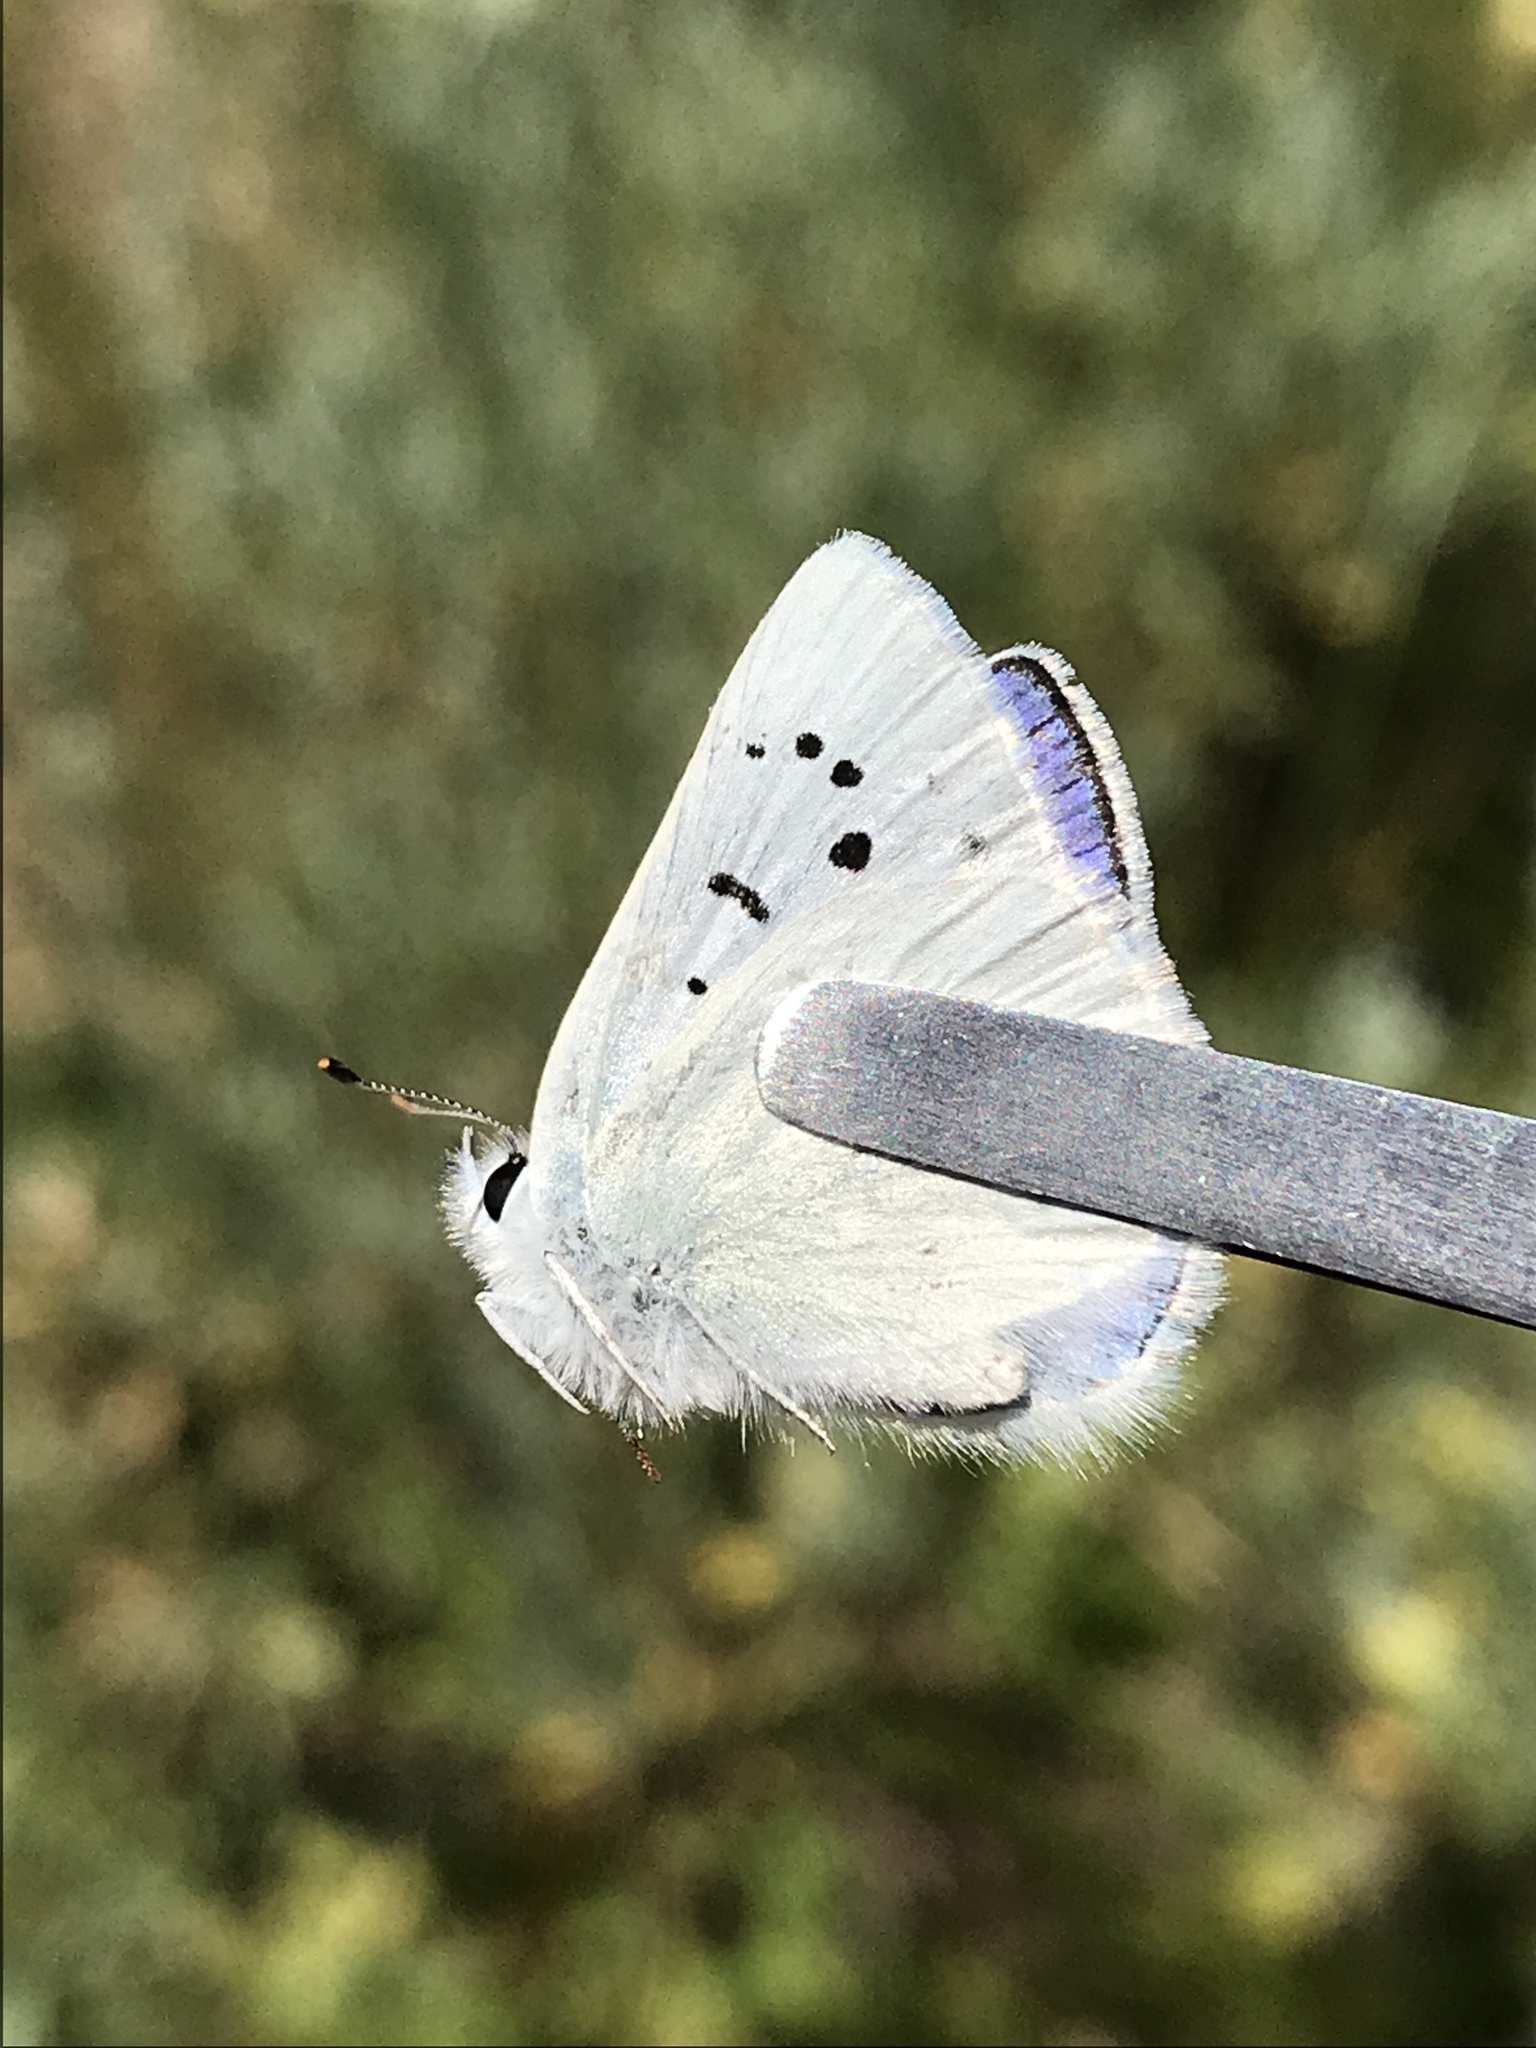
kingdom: Animalia
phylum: Arthropoda
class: Insecta
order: Lepidoptera
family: Lycaenidae
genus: Tharsalea
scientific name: Tharsalea heteronea
